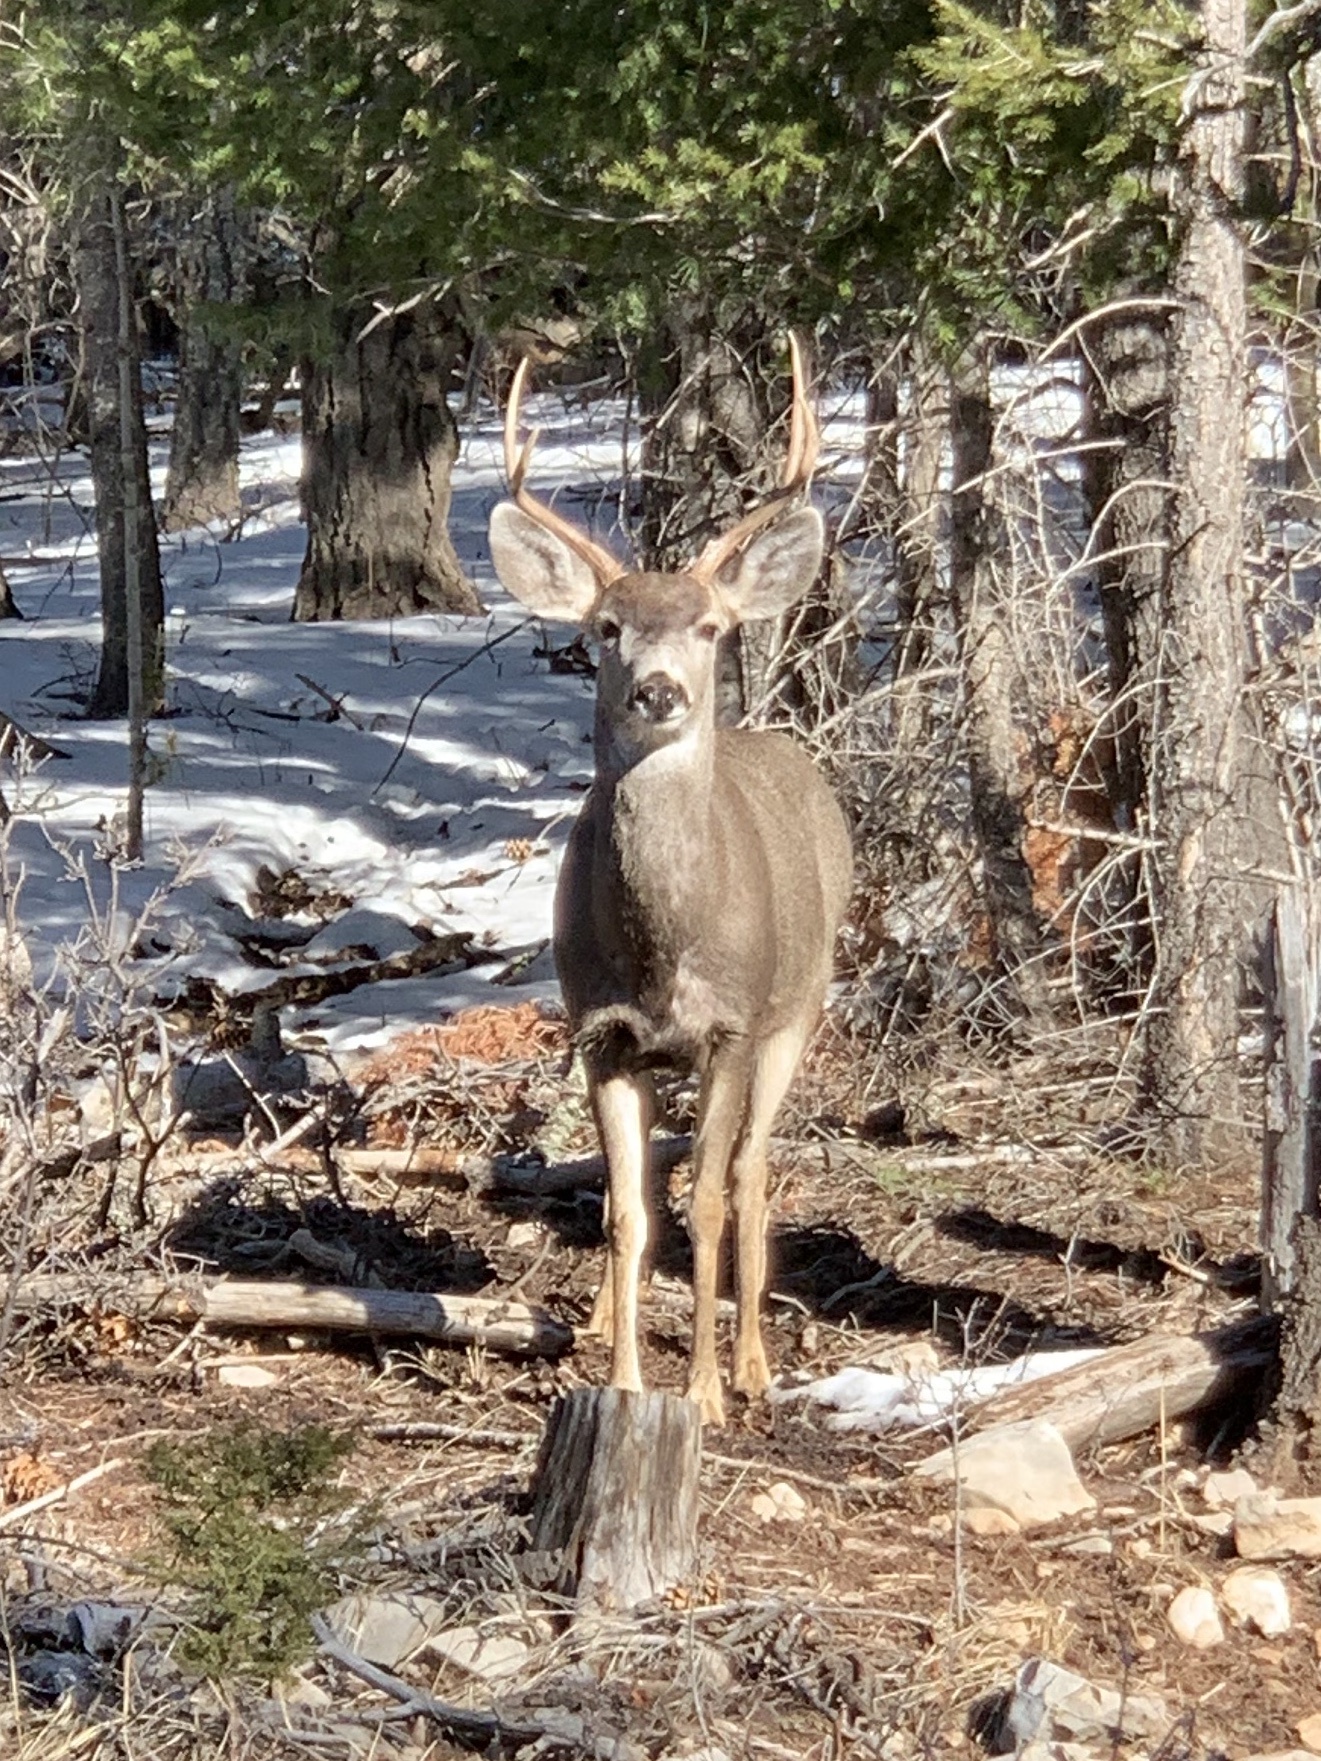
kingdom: Animalia
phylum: Chordata
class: Mammalia
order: Artiodactyla
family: Cervidae
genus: Odocoileus
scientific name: Odocoileus hemionus
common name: Mule deer
